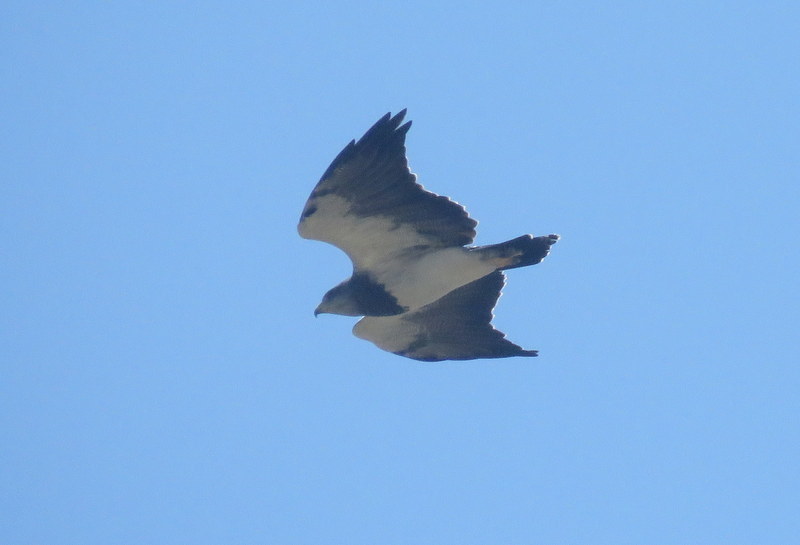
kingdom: Animalia
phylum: Chordata
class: Aves
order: Accipitriformes
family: Accipitridae
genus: Geranoaetus
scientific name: Geranoaetus melanoleucus
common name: Black-chested buzzard-eagle
